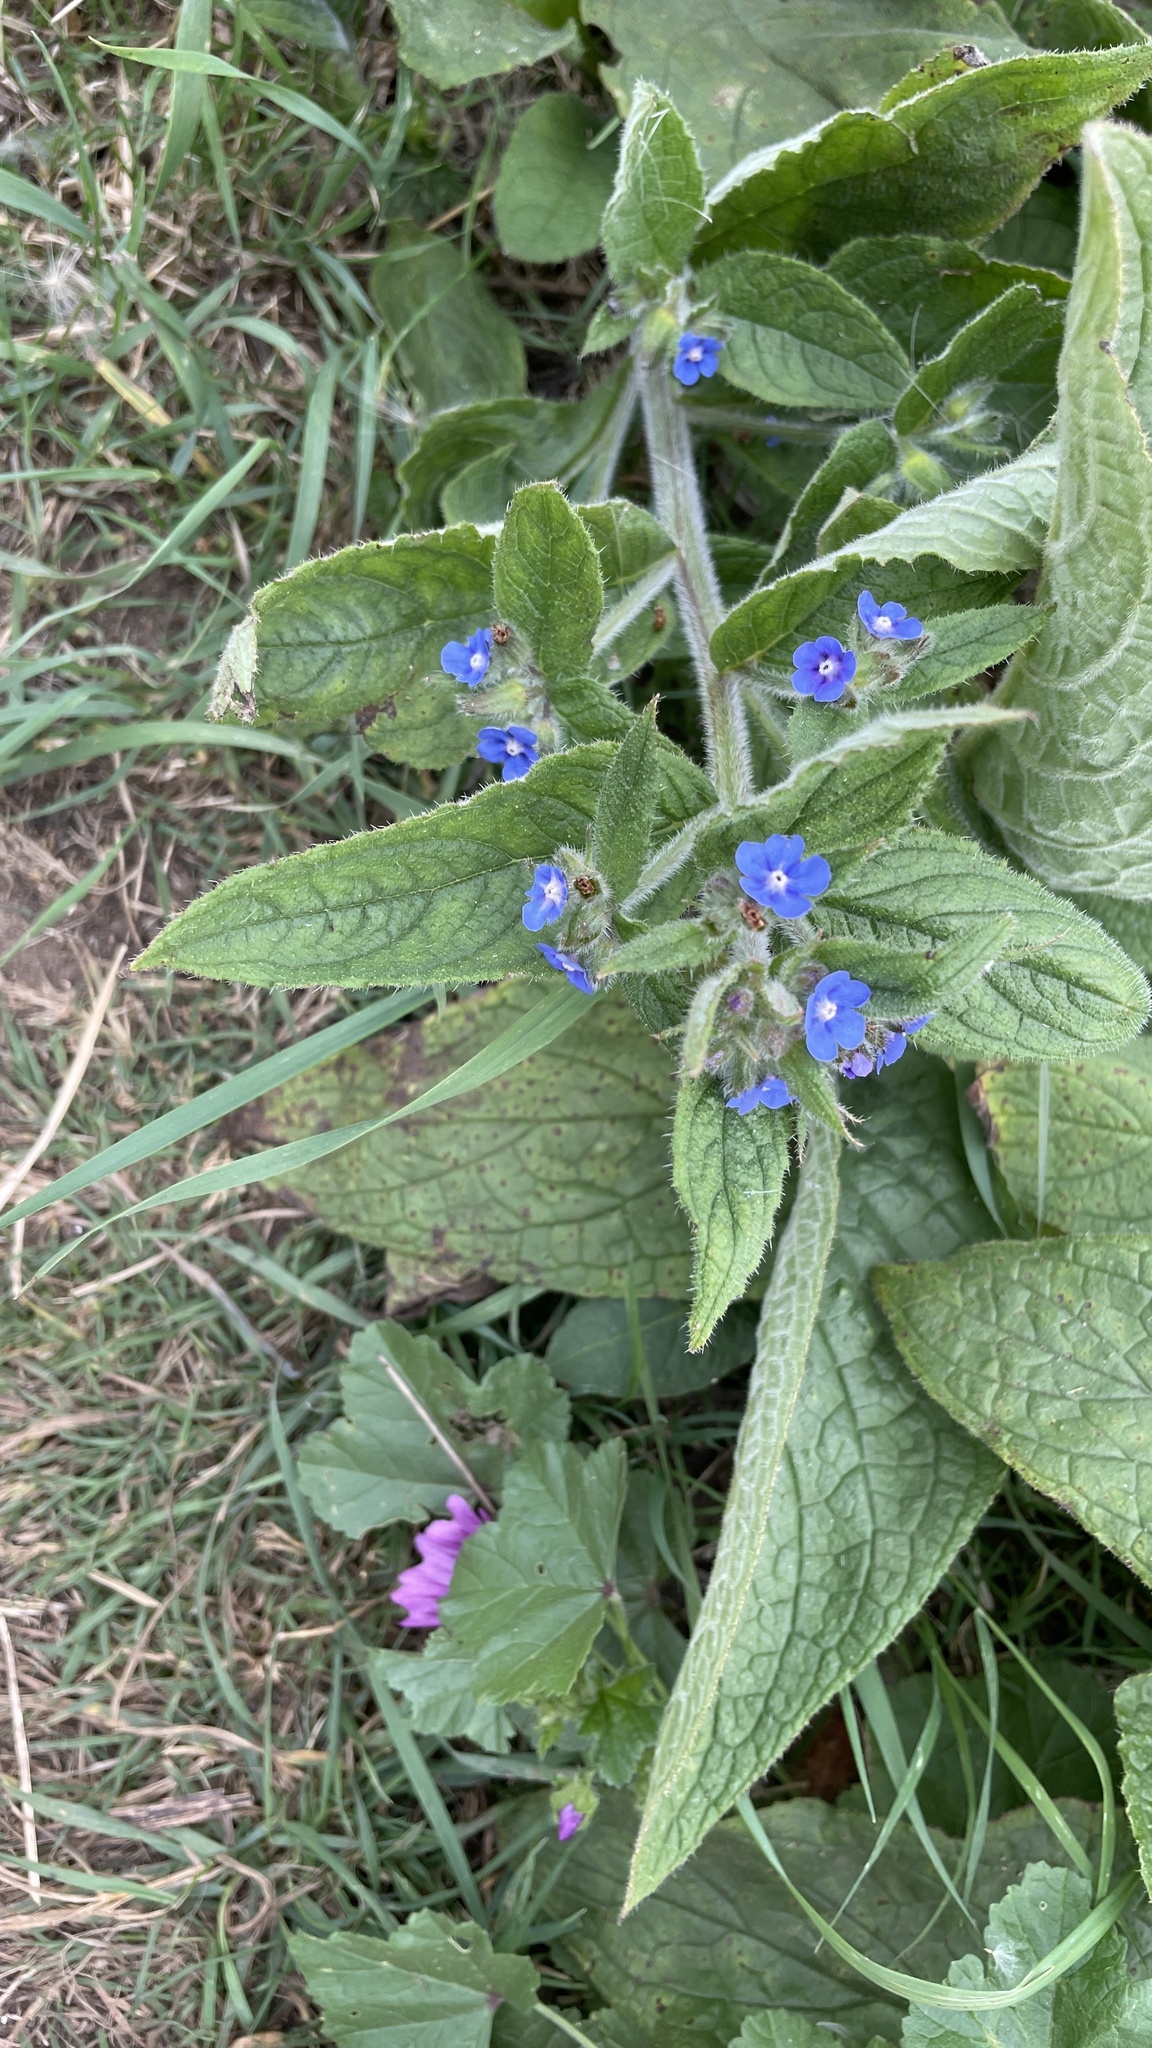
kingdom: Plantae
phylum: Tracheophyta
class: Magnoliopsida
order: Boraginales
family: Boraginaceae
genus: Pentaglottis
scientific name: Pentaglottis sempervirens
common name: Green alkanet
